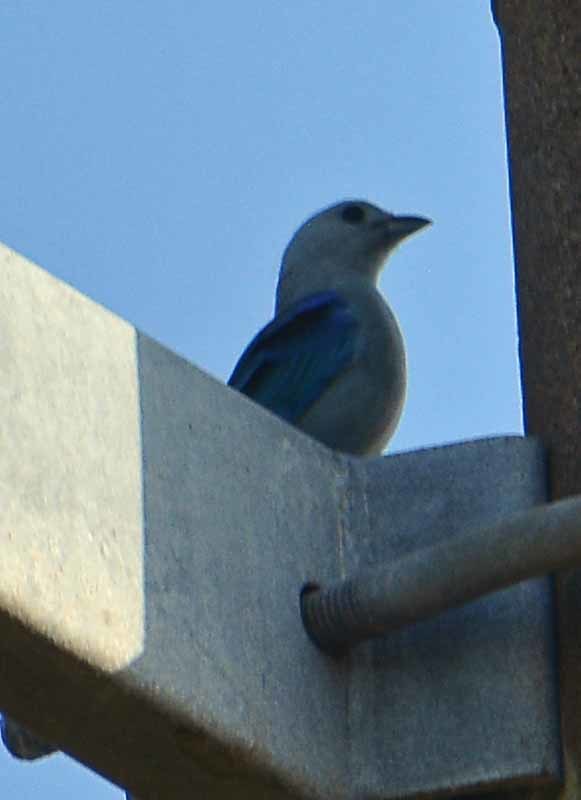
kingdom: Animalia
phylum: Chordata
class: Aves
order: Passeriformes
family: Thraupidae
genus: Thraupis
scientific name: Thraupis episcopus
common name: Blue-grey tanager
